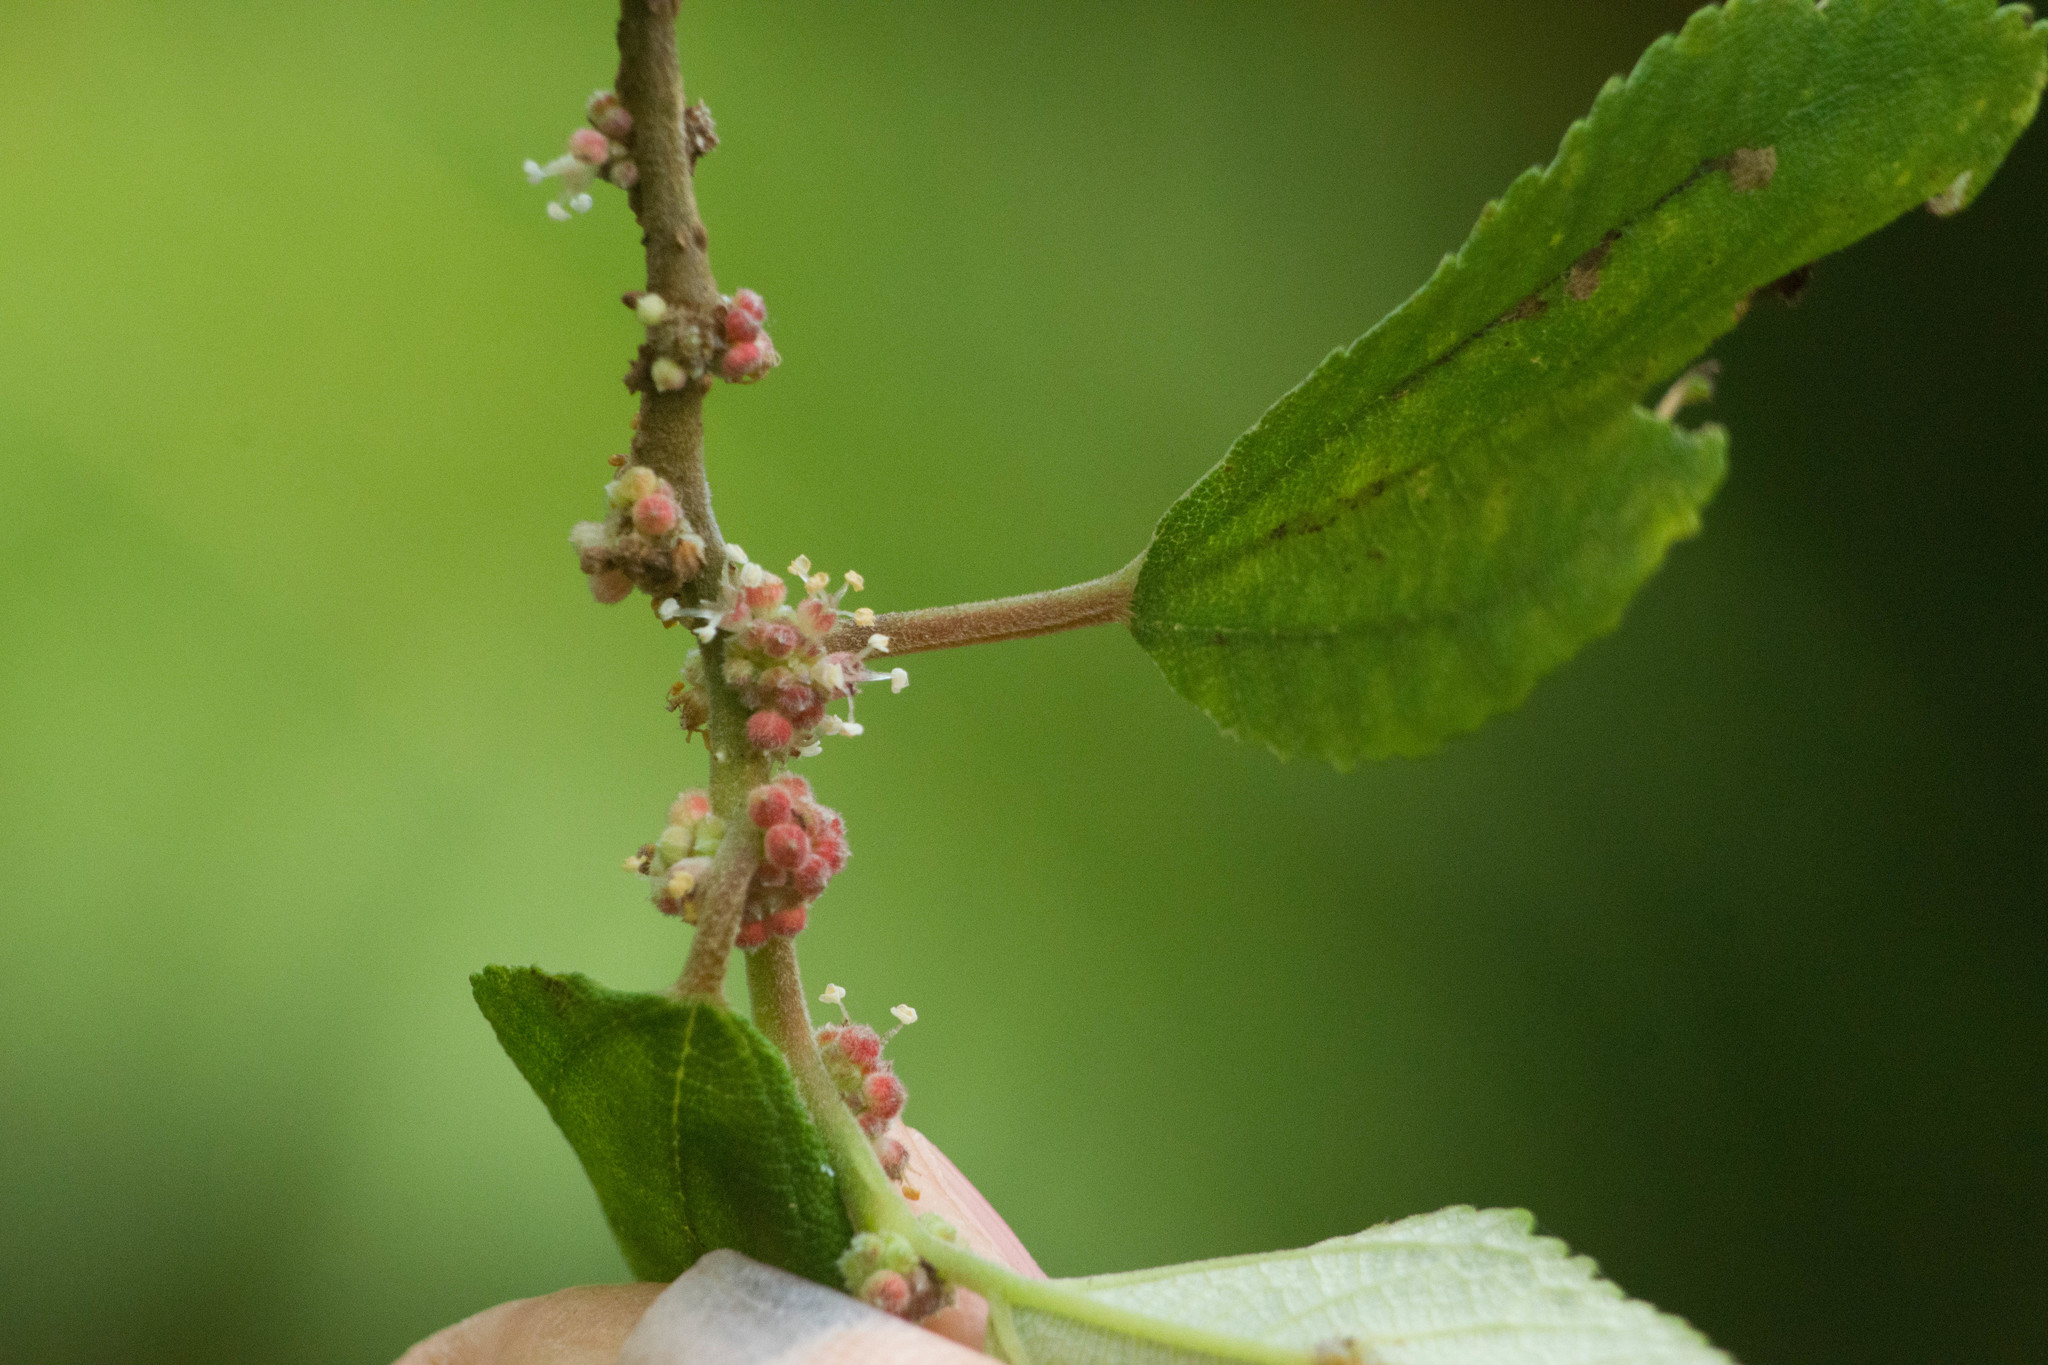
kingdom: Plantae
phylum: Tracheophyta
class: Magnoliopsida
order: Rosales
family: Urticaceae
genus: Pipturus
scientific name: Pipturus albidus
